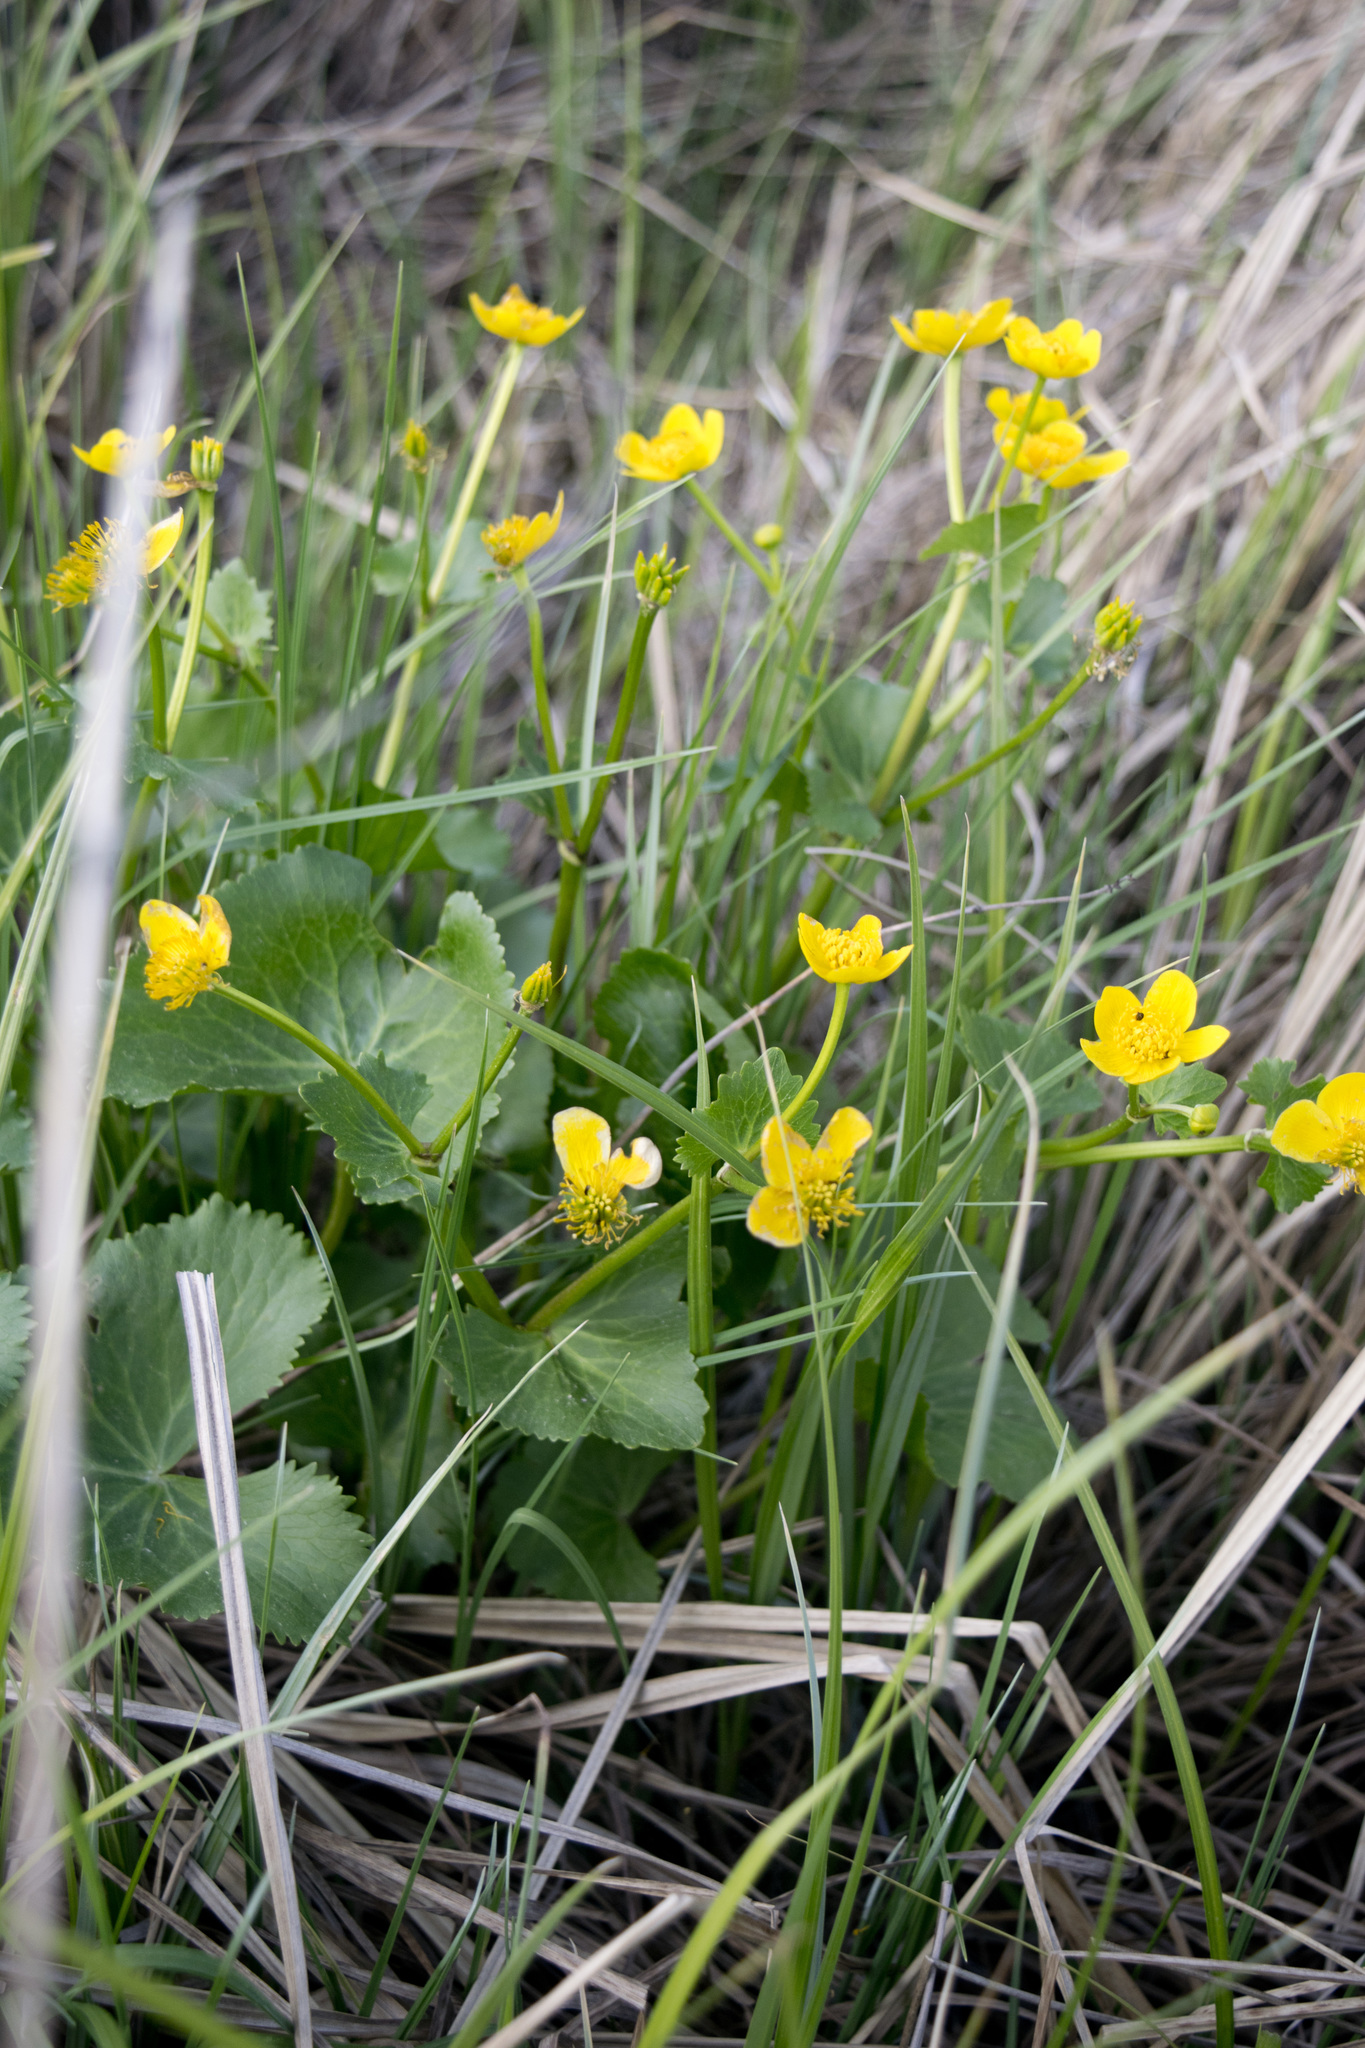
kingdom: Plantae
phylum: Tracheophyta
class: Magnoliopsida
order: Ranunculales
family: Ranunculaceae
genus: Caltha
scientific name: Caltha palustris
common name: Marsh marigold
